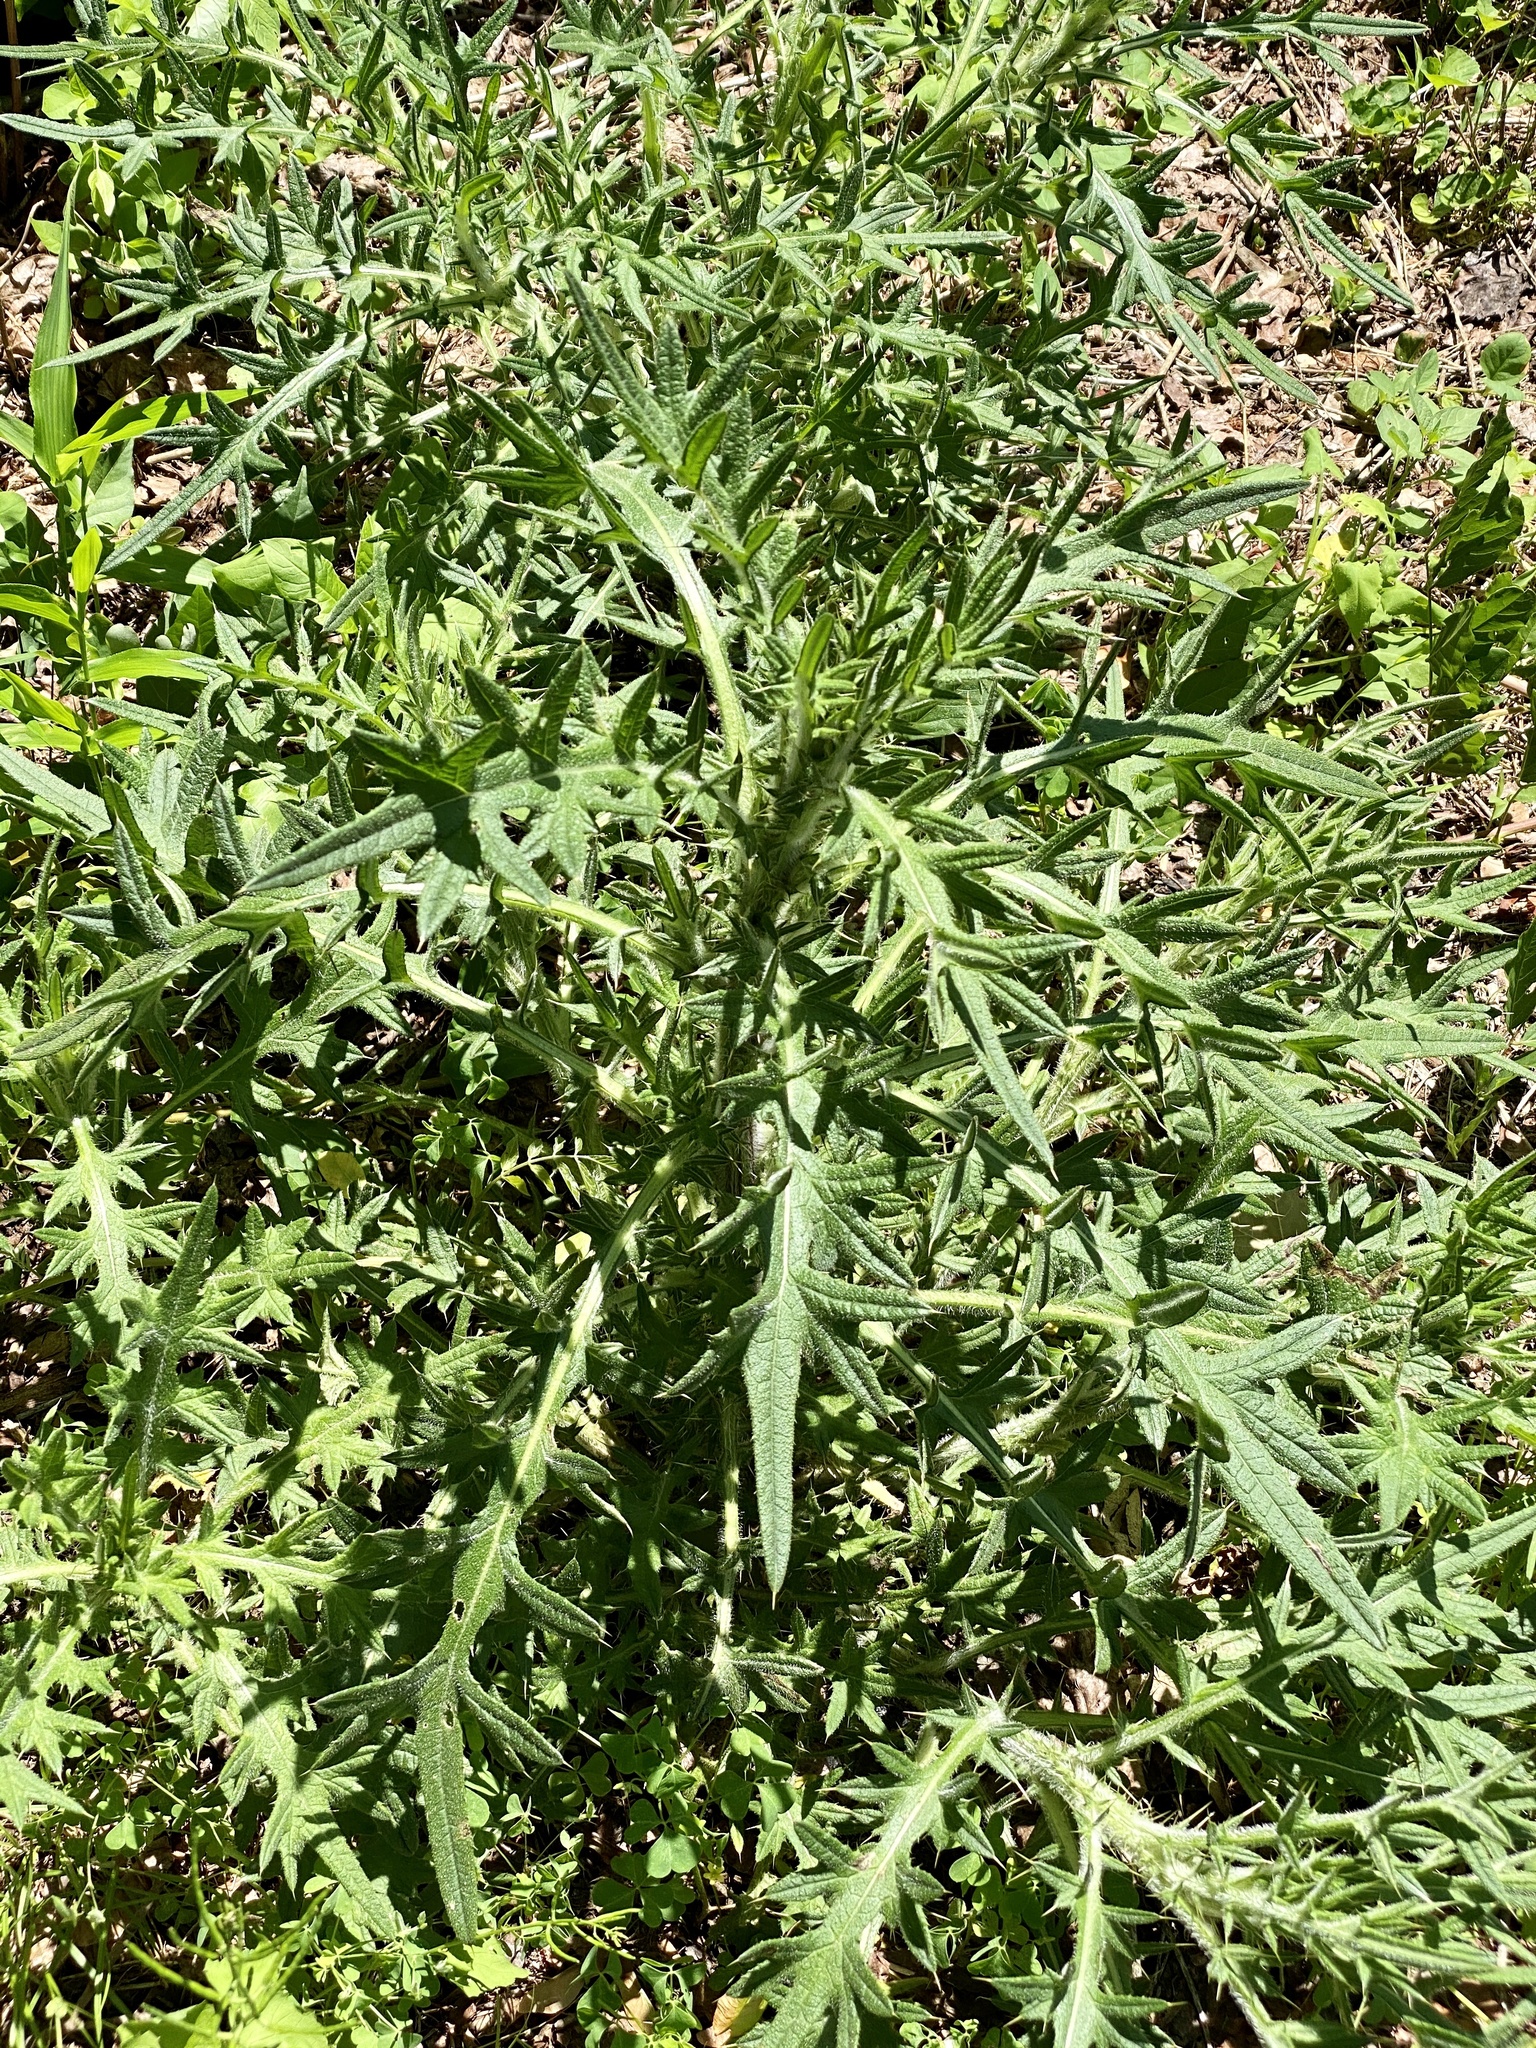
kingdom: Plantae
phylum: Tracheophyta
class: Magnoliopsida
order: Asterales
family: Asteraceae
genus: Cirsium
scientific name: Cirsium vulgare
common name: Bull thistle
